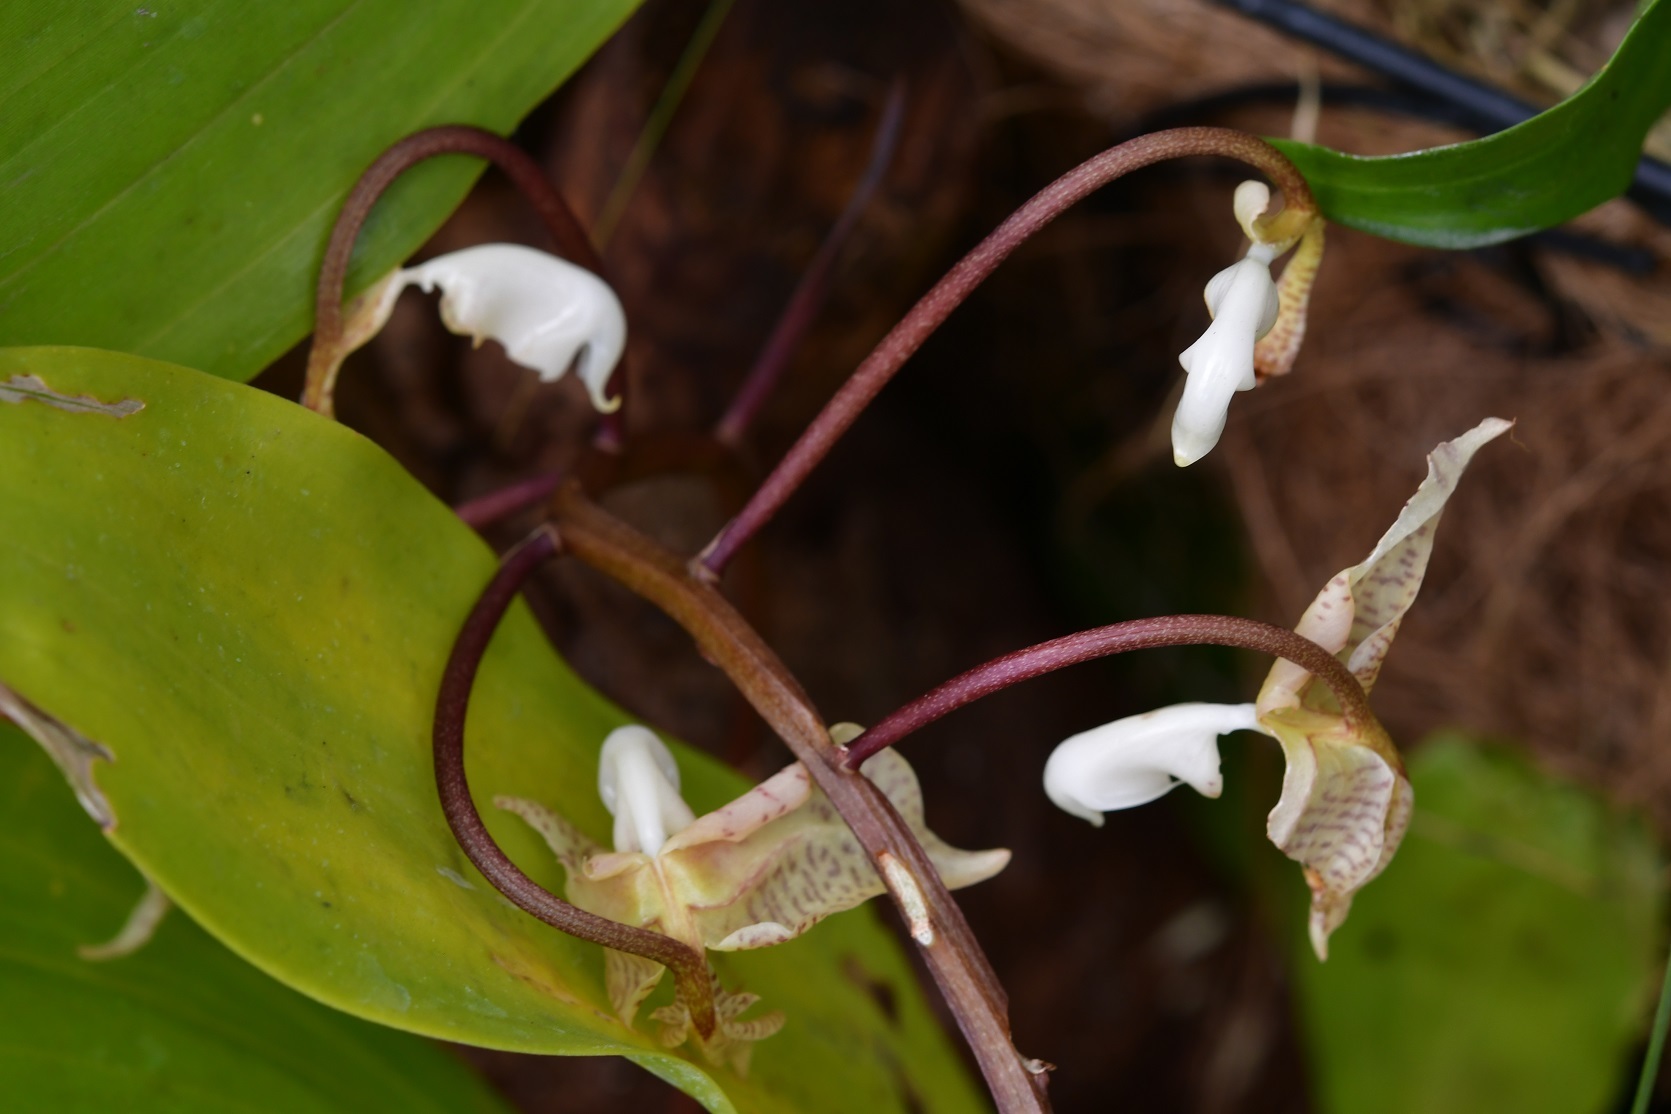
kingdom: Plantae
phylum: Tracheophyta
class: Liliopsida
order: Asparagales
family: Orchidaceae
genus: Gongora
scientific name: Gongora truncata
